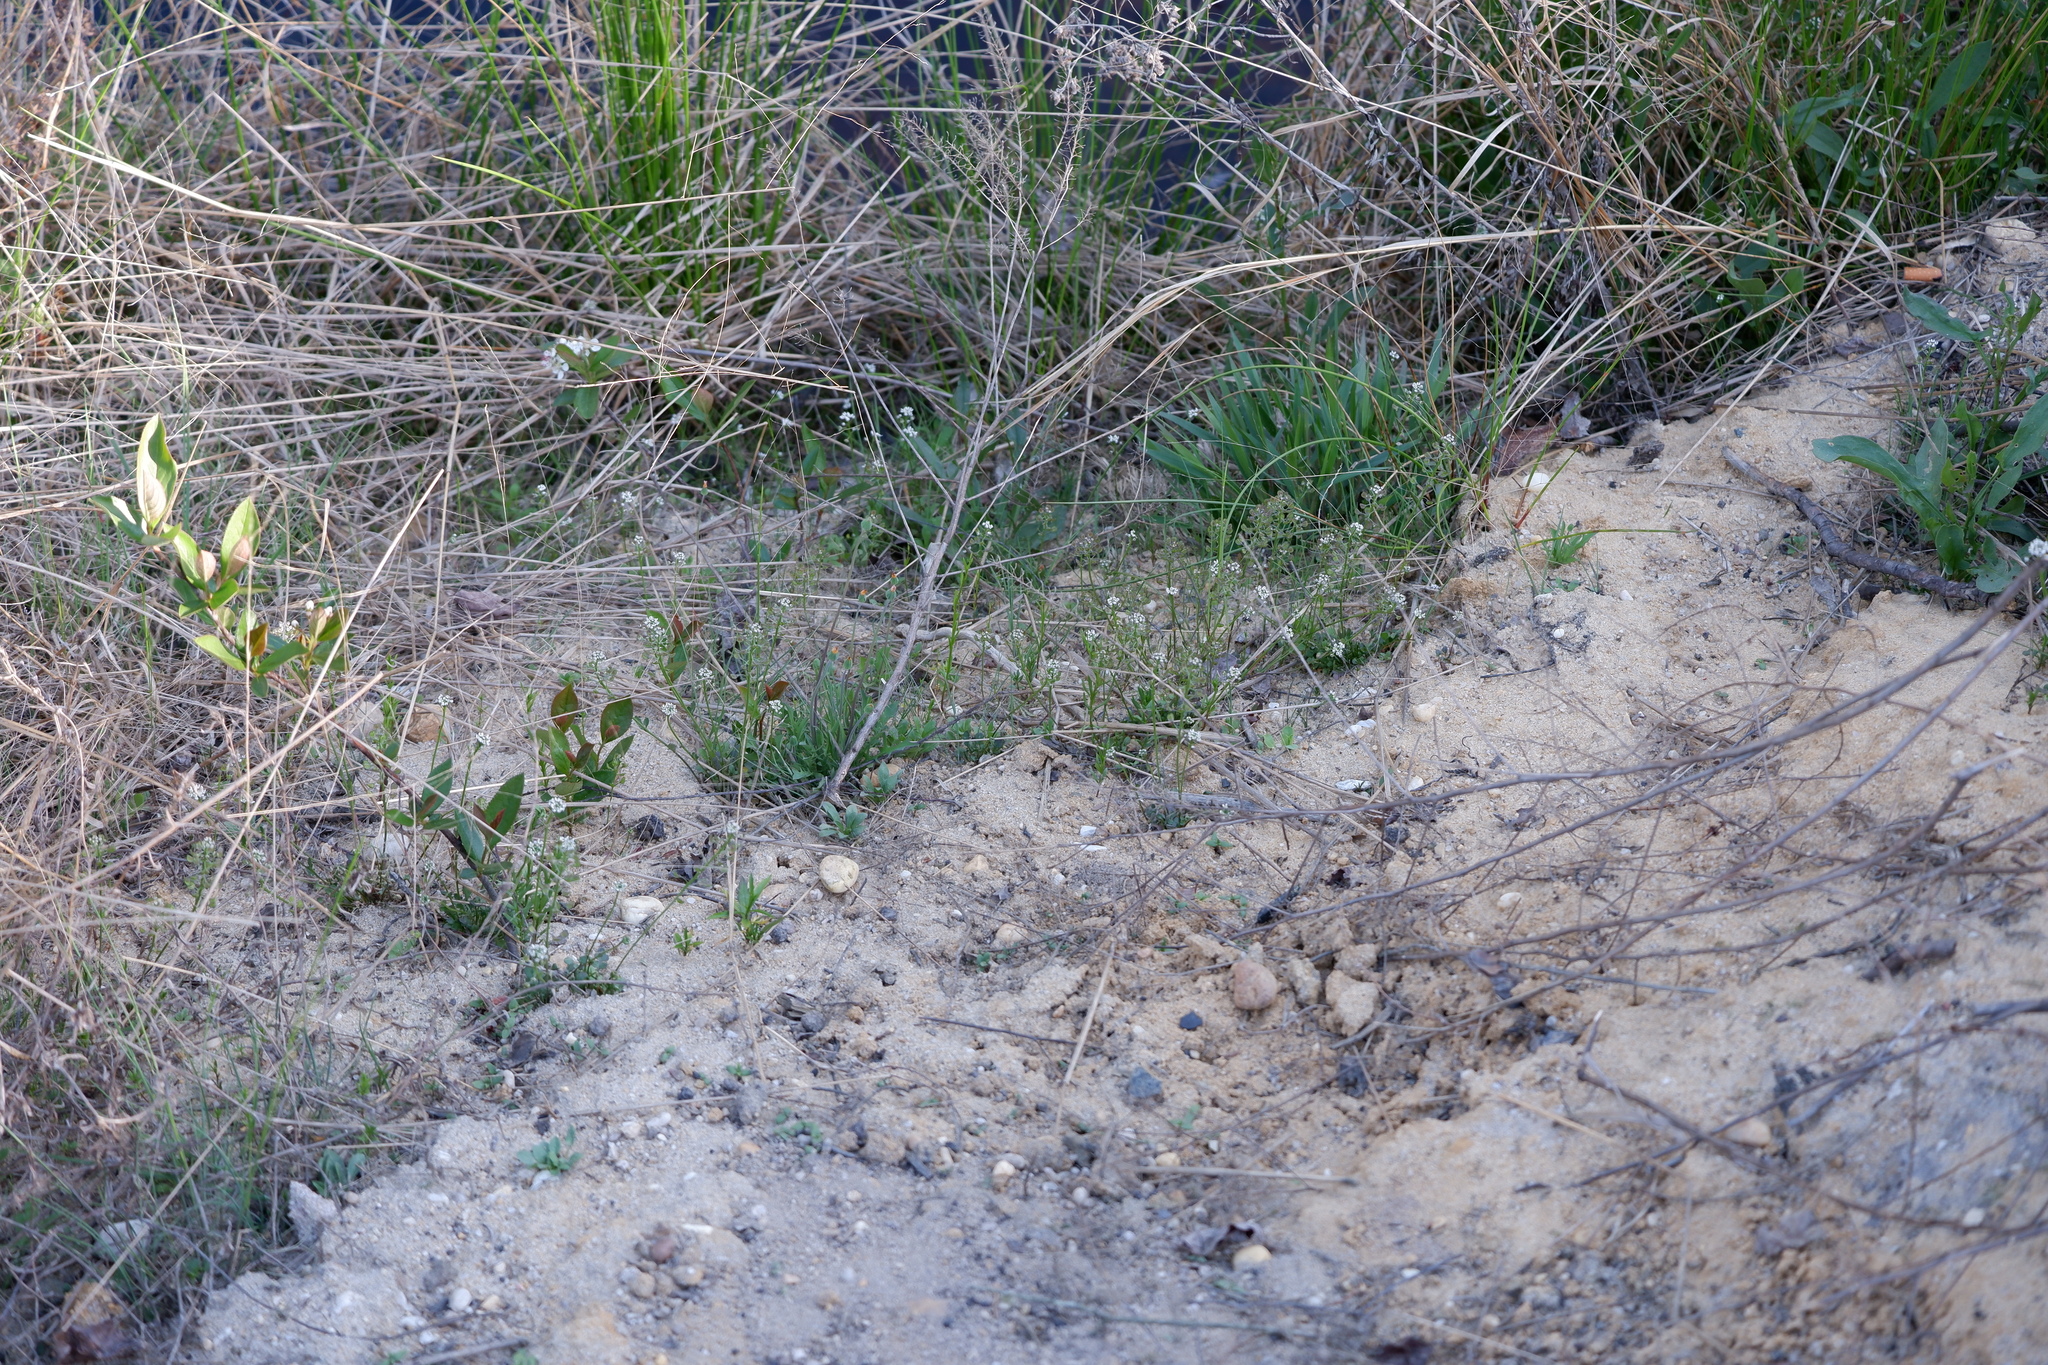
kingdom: Plantae
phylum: Tracheophyta
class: Magnoliopsida
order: Brassicales
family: Brassicaceae
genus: Teesdalia
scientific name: Teesdalia nudicaulis
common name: Shepherd's cress
